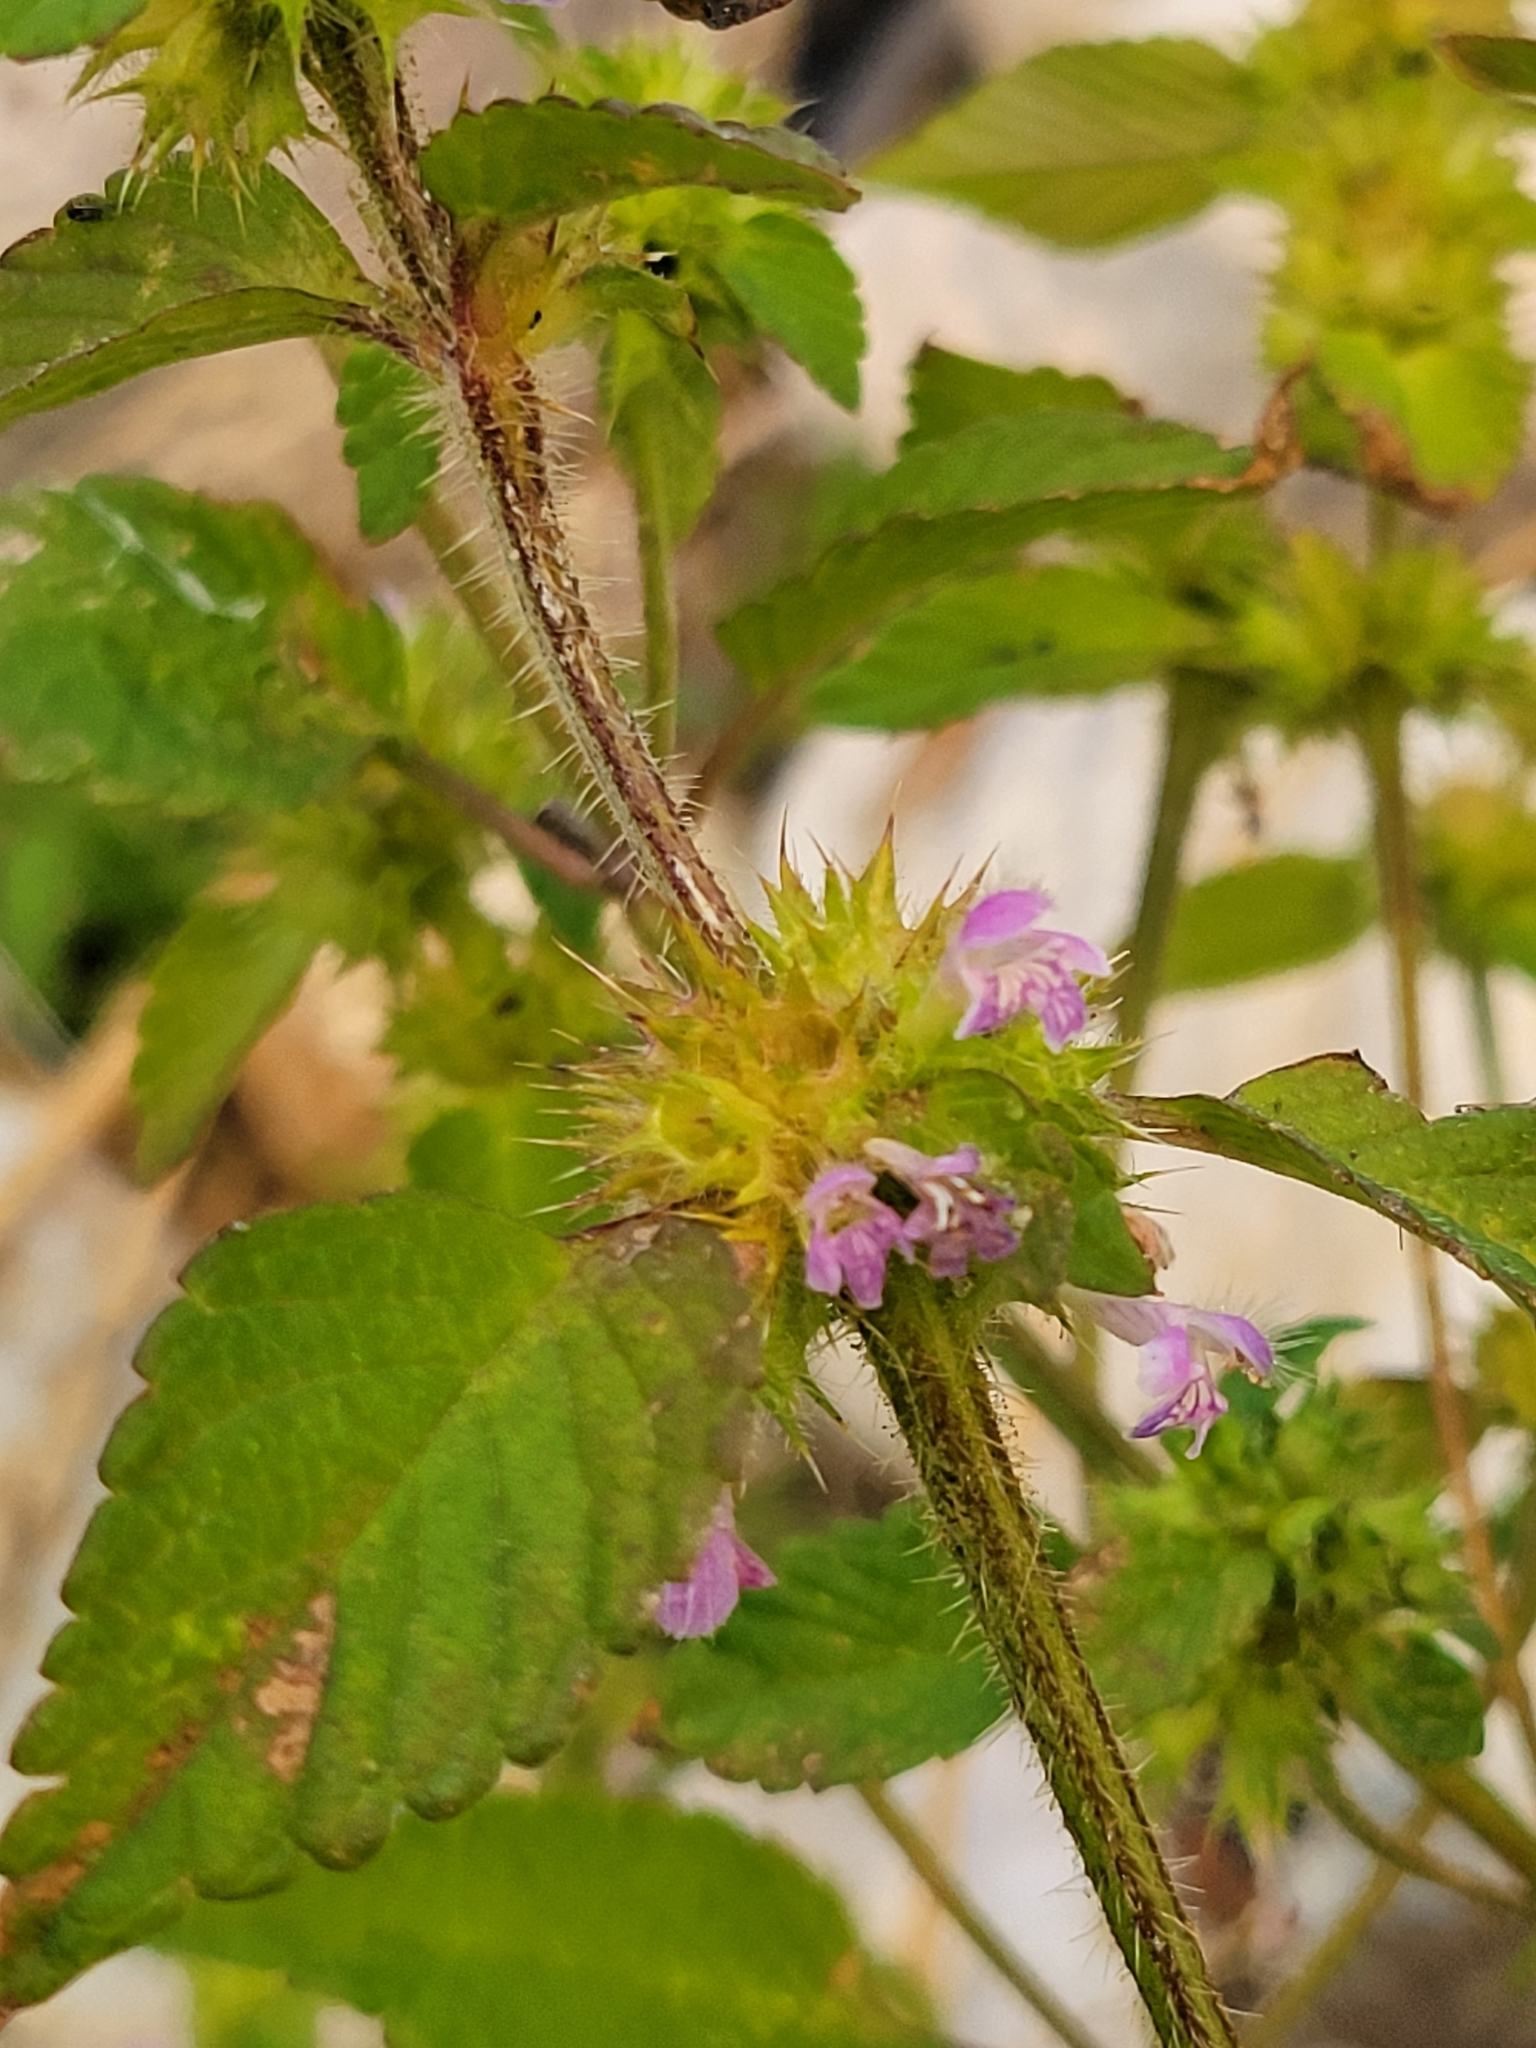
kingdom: Plantae
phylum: Tracheophyta
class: Magnoliopsida
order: Lamiales
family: Lamiaceae
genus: Galeopsis
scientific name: Galeopsis bifida
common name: Bifid hemp-nettle
